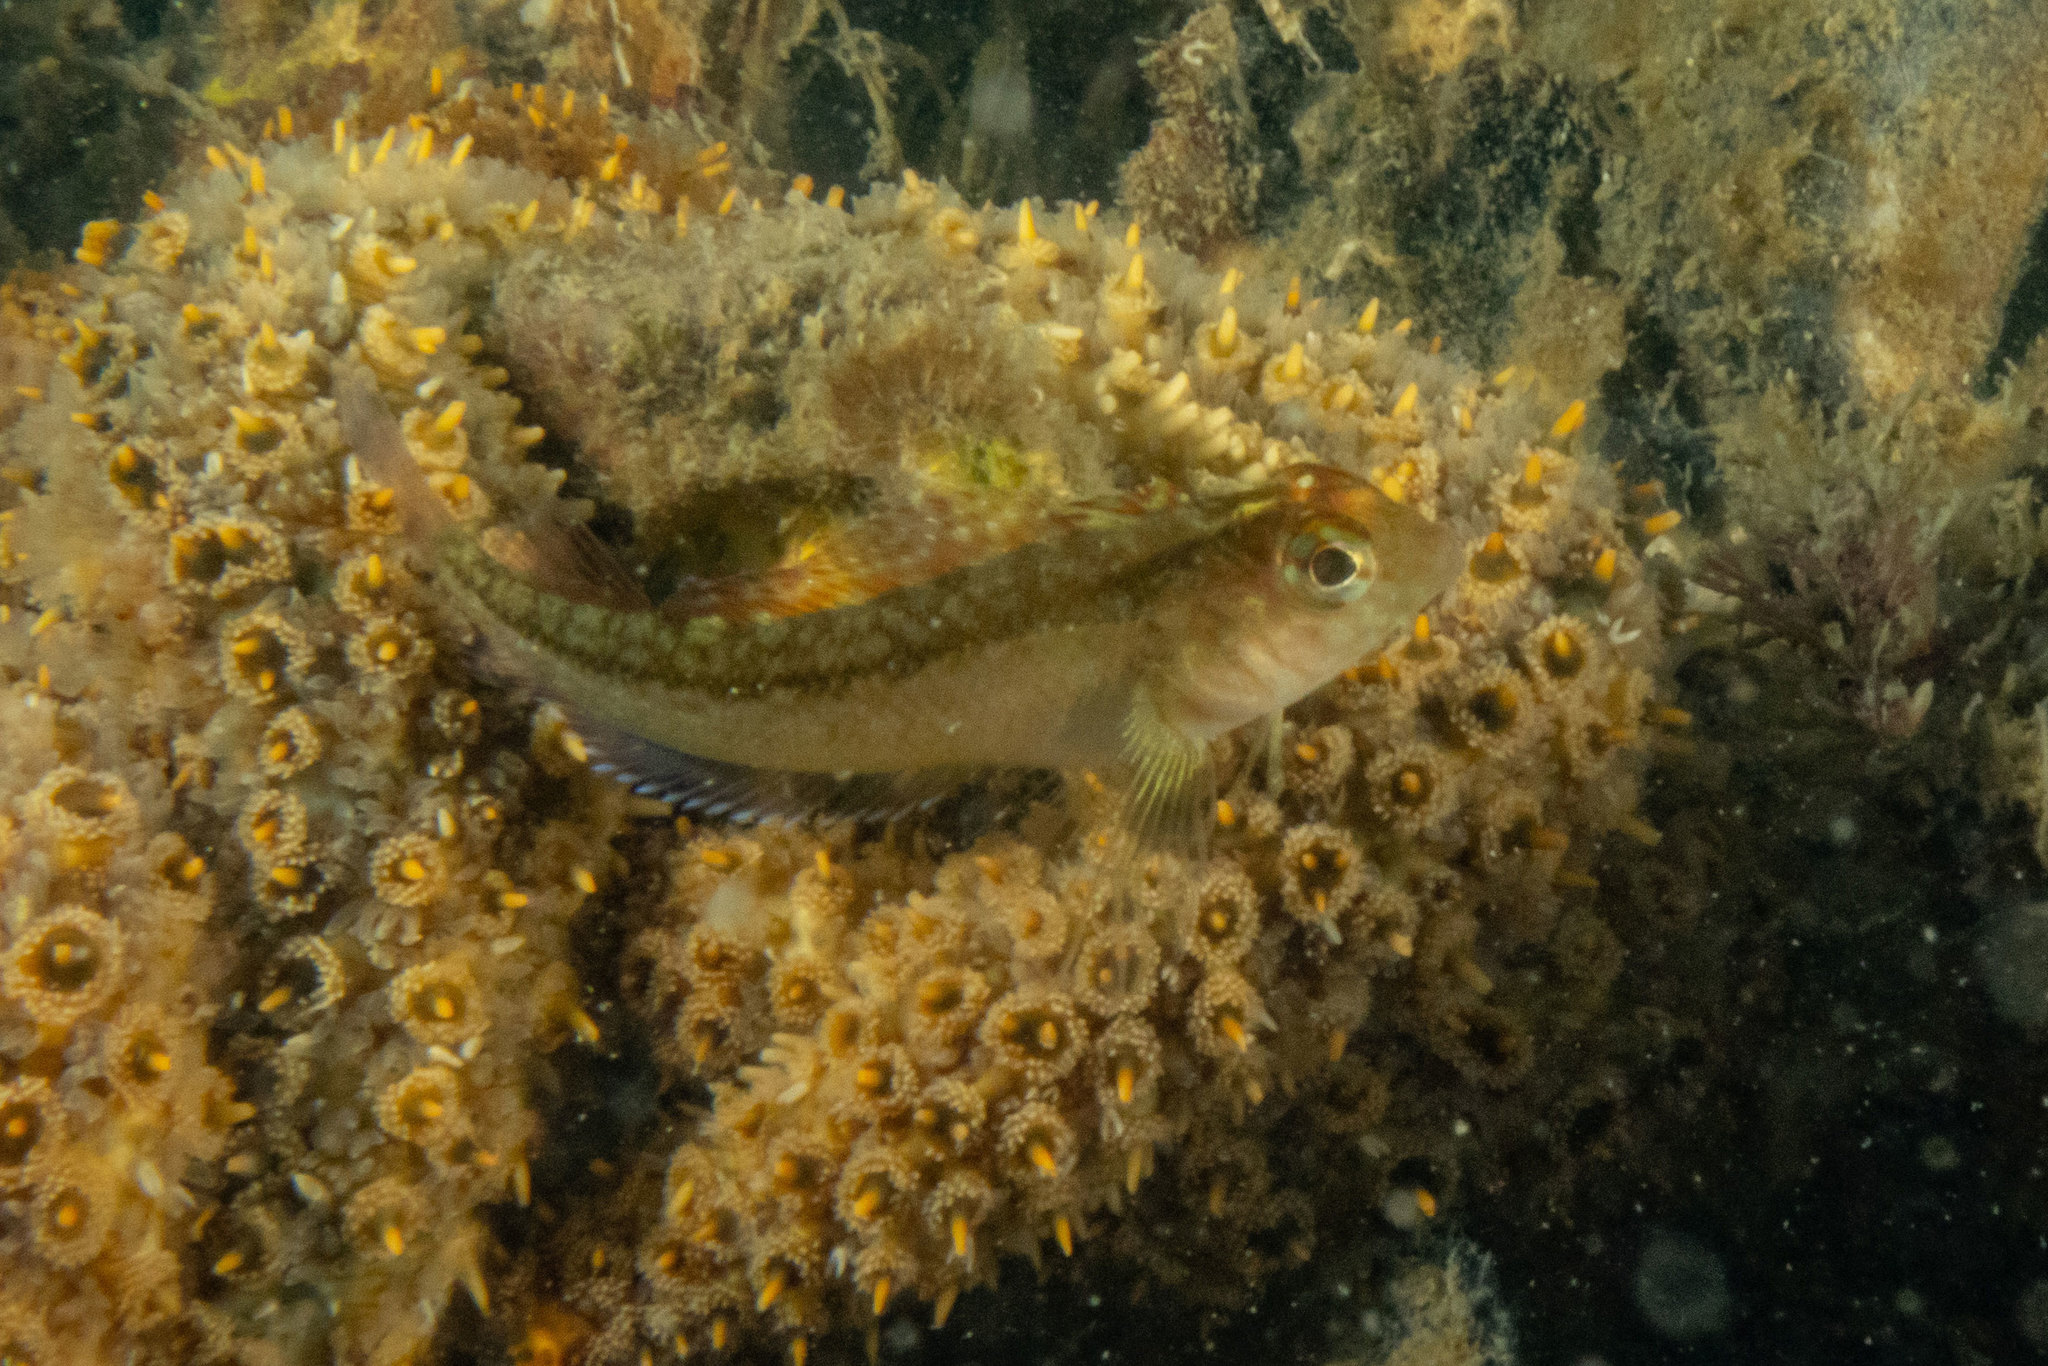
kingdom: Animalia
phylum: Chordata
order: Perciformes
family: Tripterygiidae
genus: Forsterygion
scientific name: Forsterygion lapillum
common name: Common triplefin
